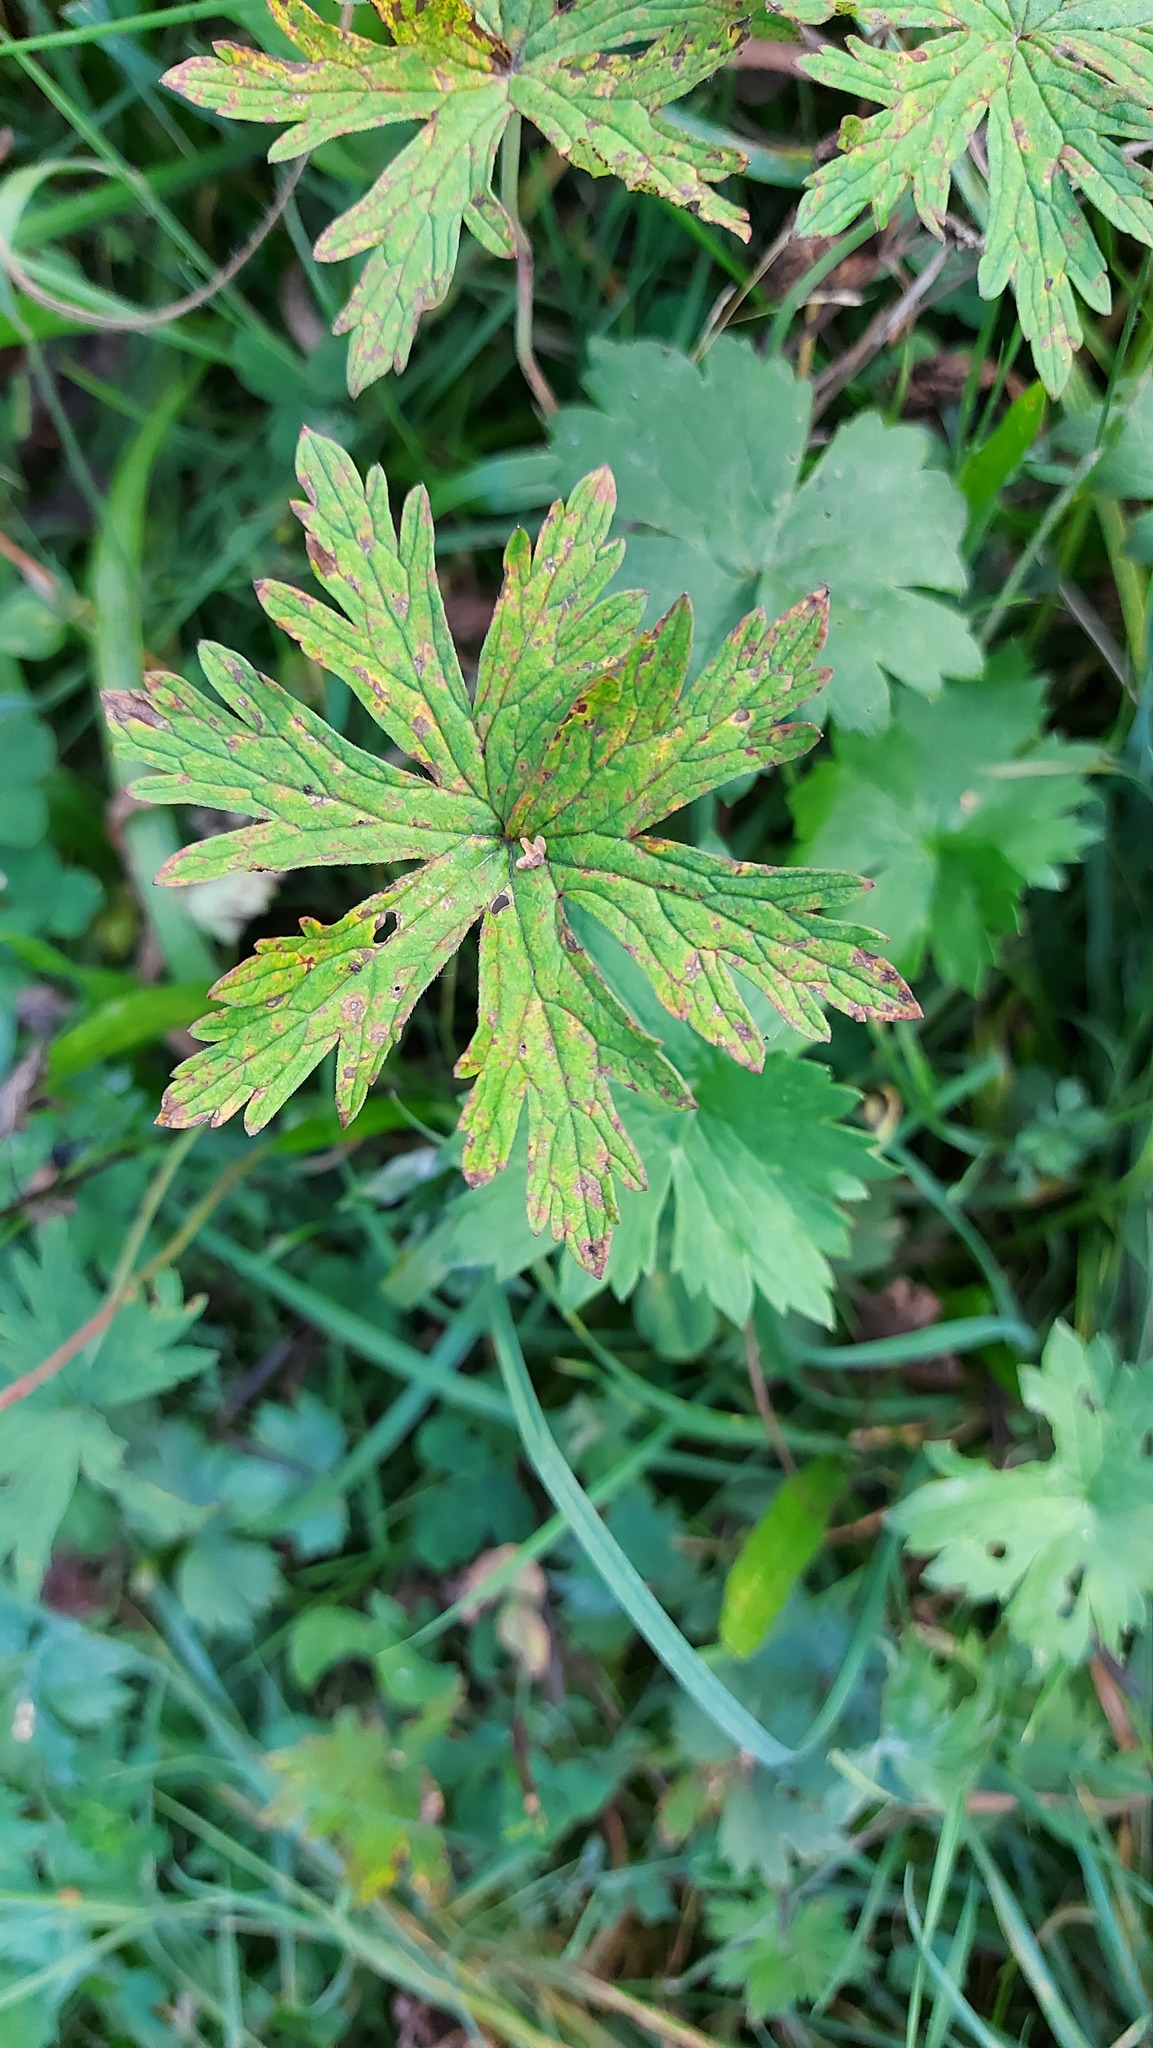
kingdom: Plantae
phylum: Tracheophyta
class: Magnoliopsida
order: Geraniales
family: Geraniaceae
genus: Geranium
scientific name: Geranium sylvaticum
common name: Wood crane's-bill
